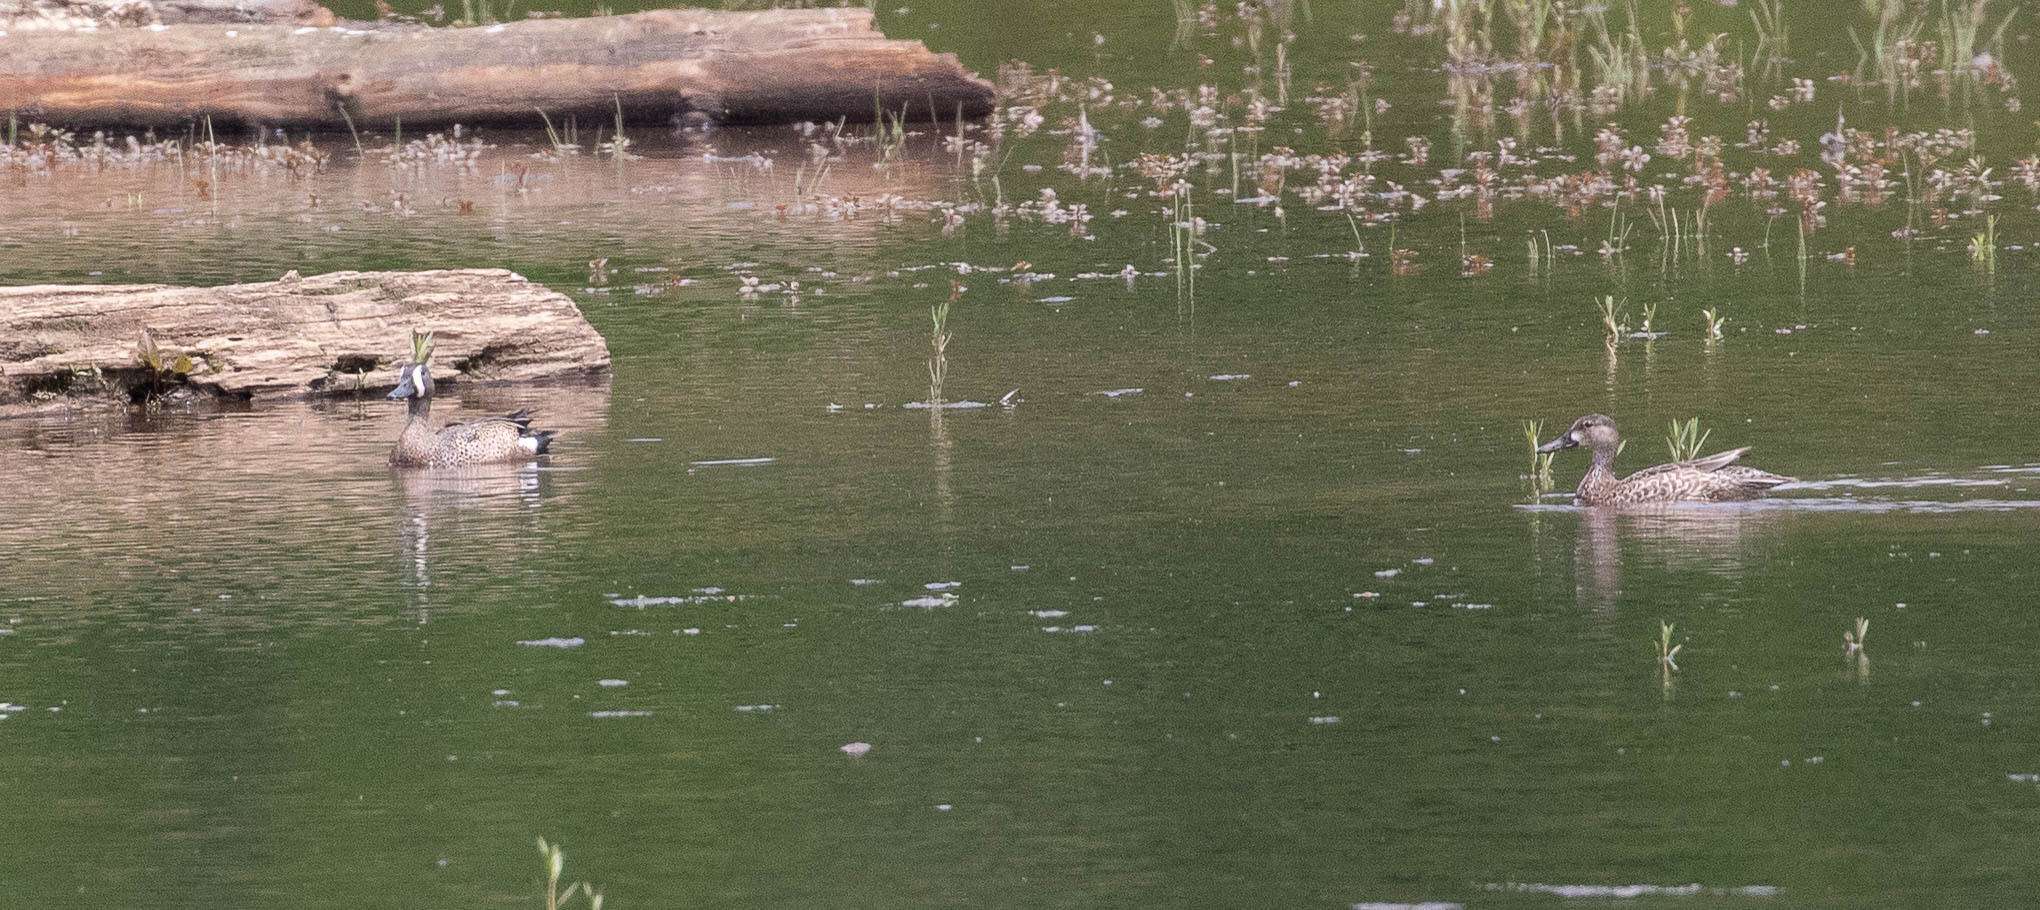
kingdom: Animalia
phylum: Chordata
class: Aves
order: Anseriformes
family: Anatidae
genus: Spatula
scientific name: Spatula discors
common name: Blue-winged teal
